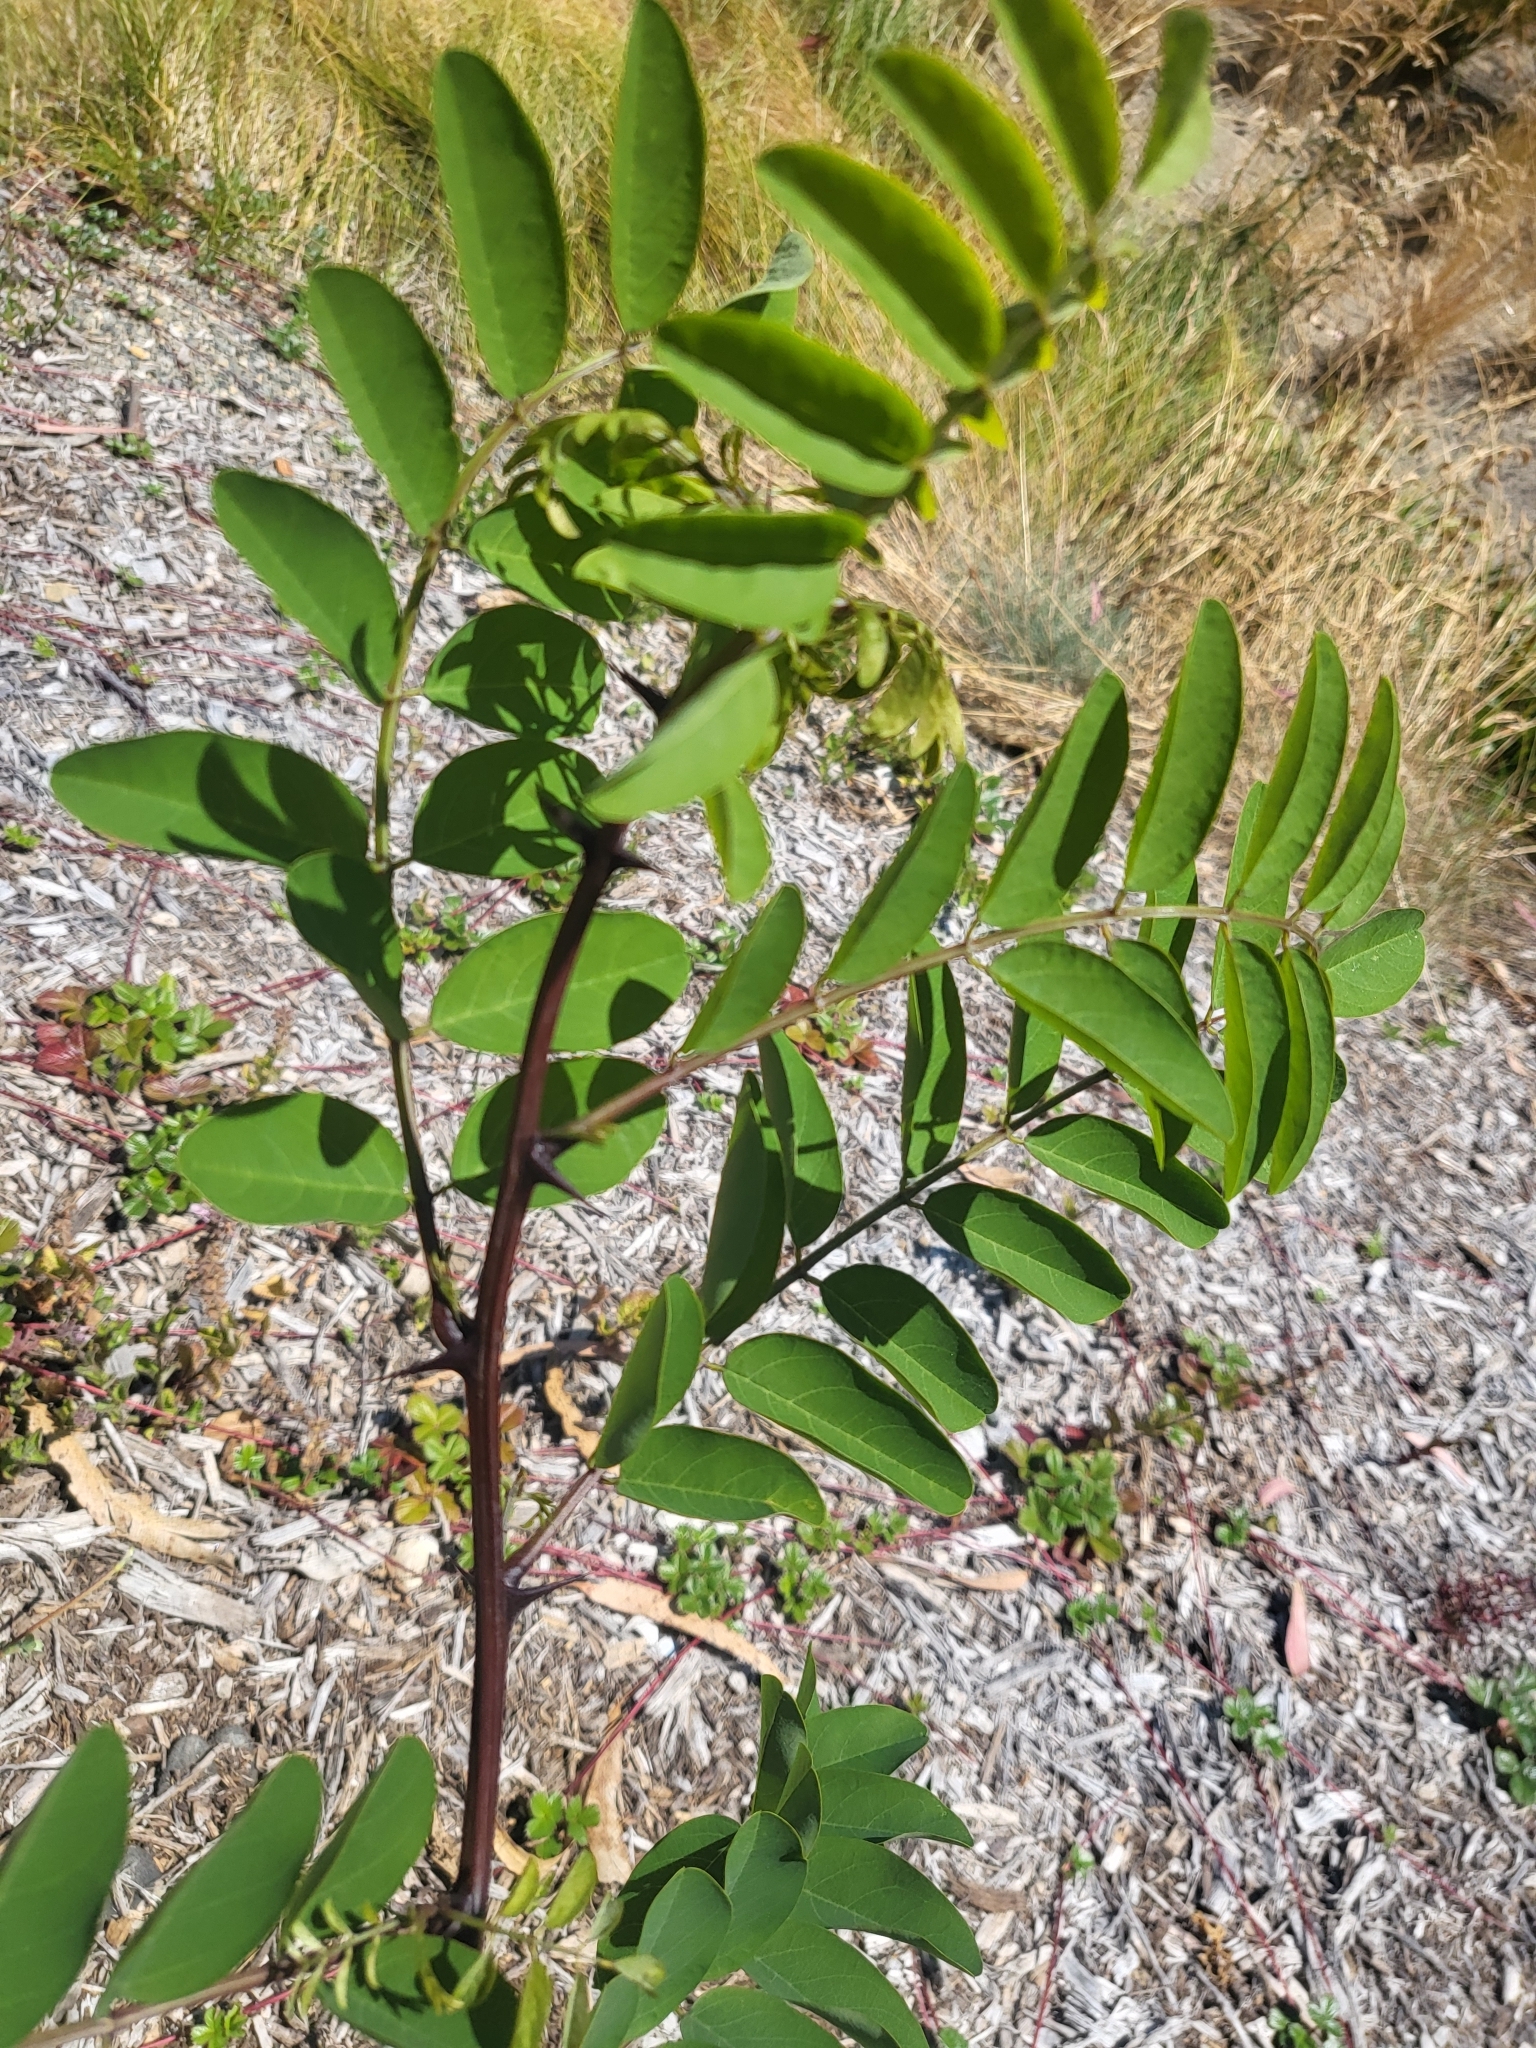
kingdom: Plantae
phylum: Tracheophyta
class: Magnoliopsida
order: Fabales
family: Fabaceae
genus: Robinia
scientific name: Robinia pseudoacacia
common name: Black locust
